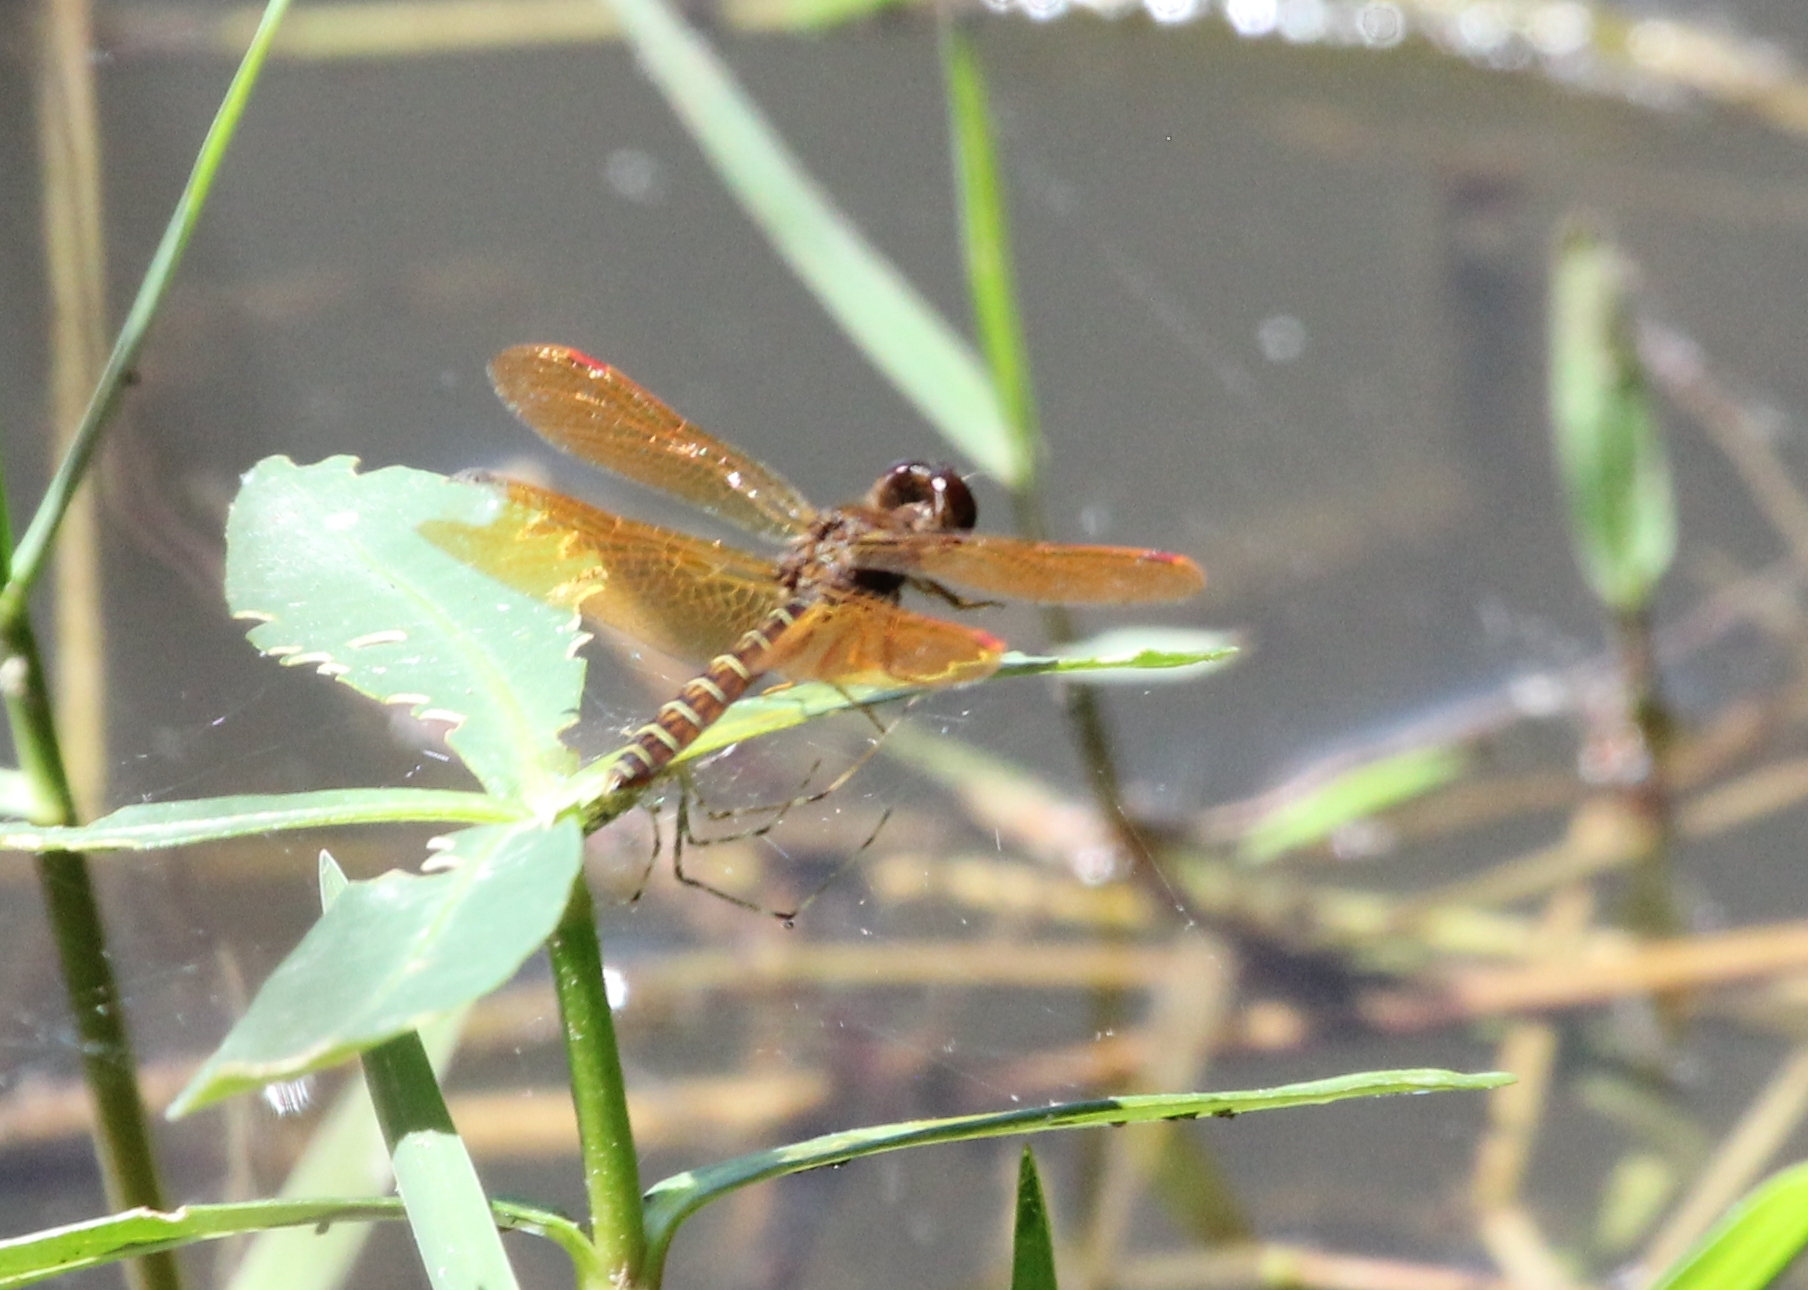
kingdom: Animalia
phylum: Arthropoda
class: Insecta
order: Odonata
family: Libellulidae
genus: Perithemis
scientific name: Perithemis tenera
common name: Eastern amberwing
